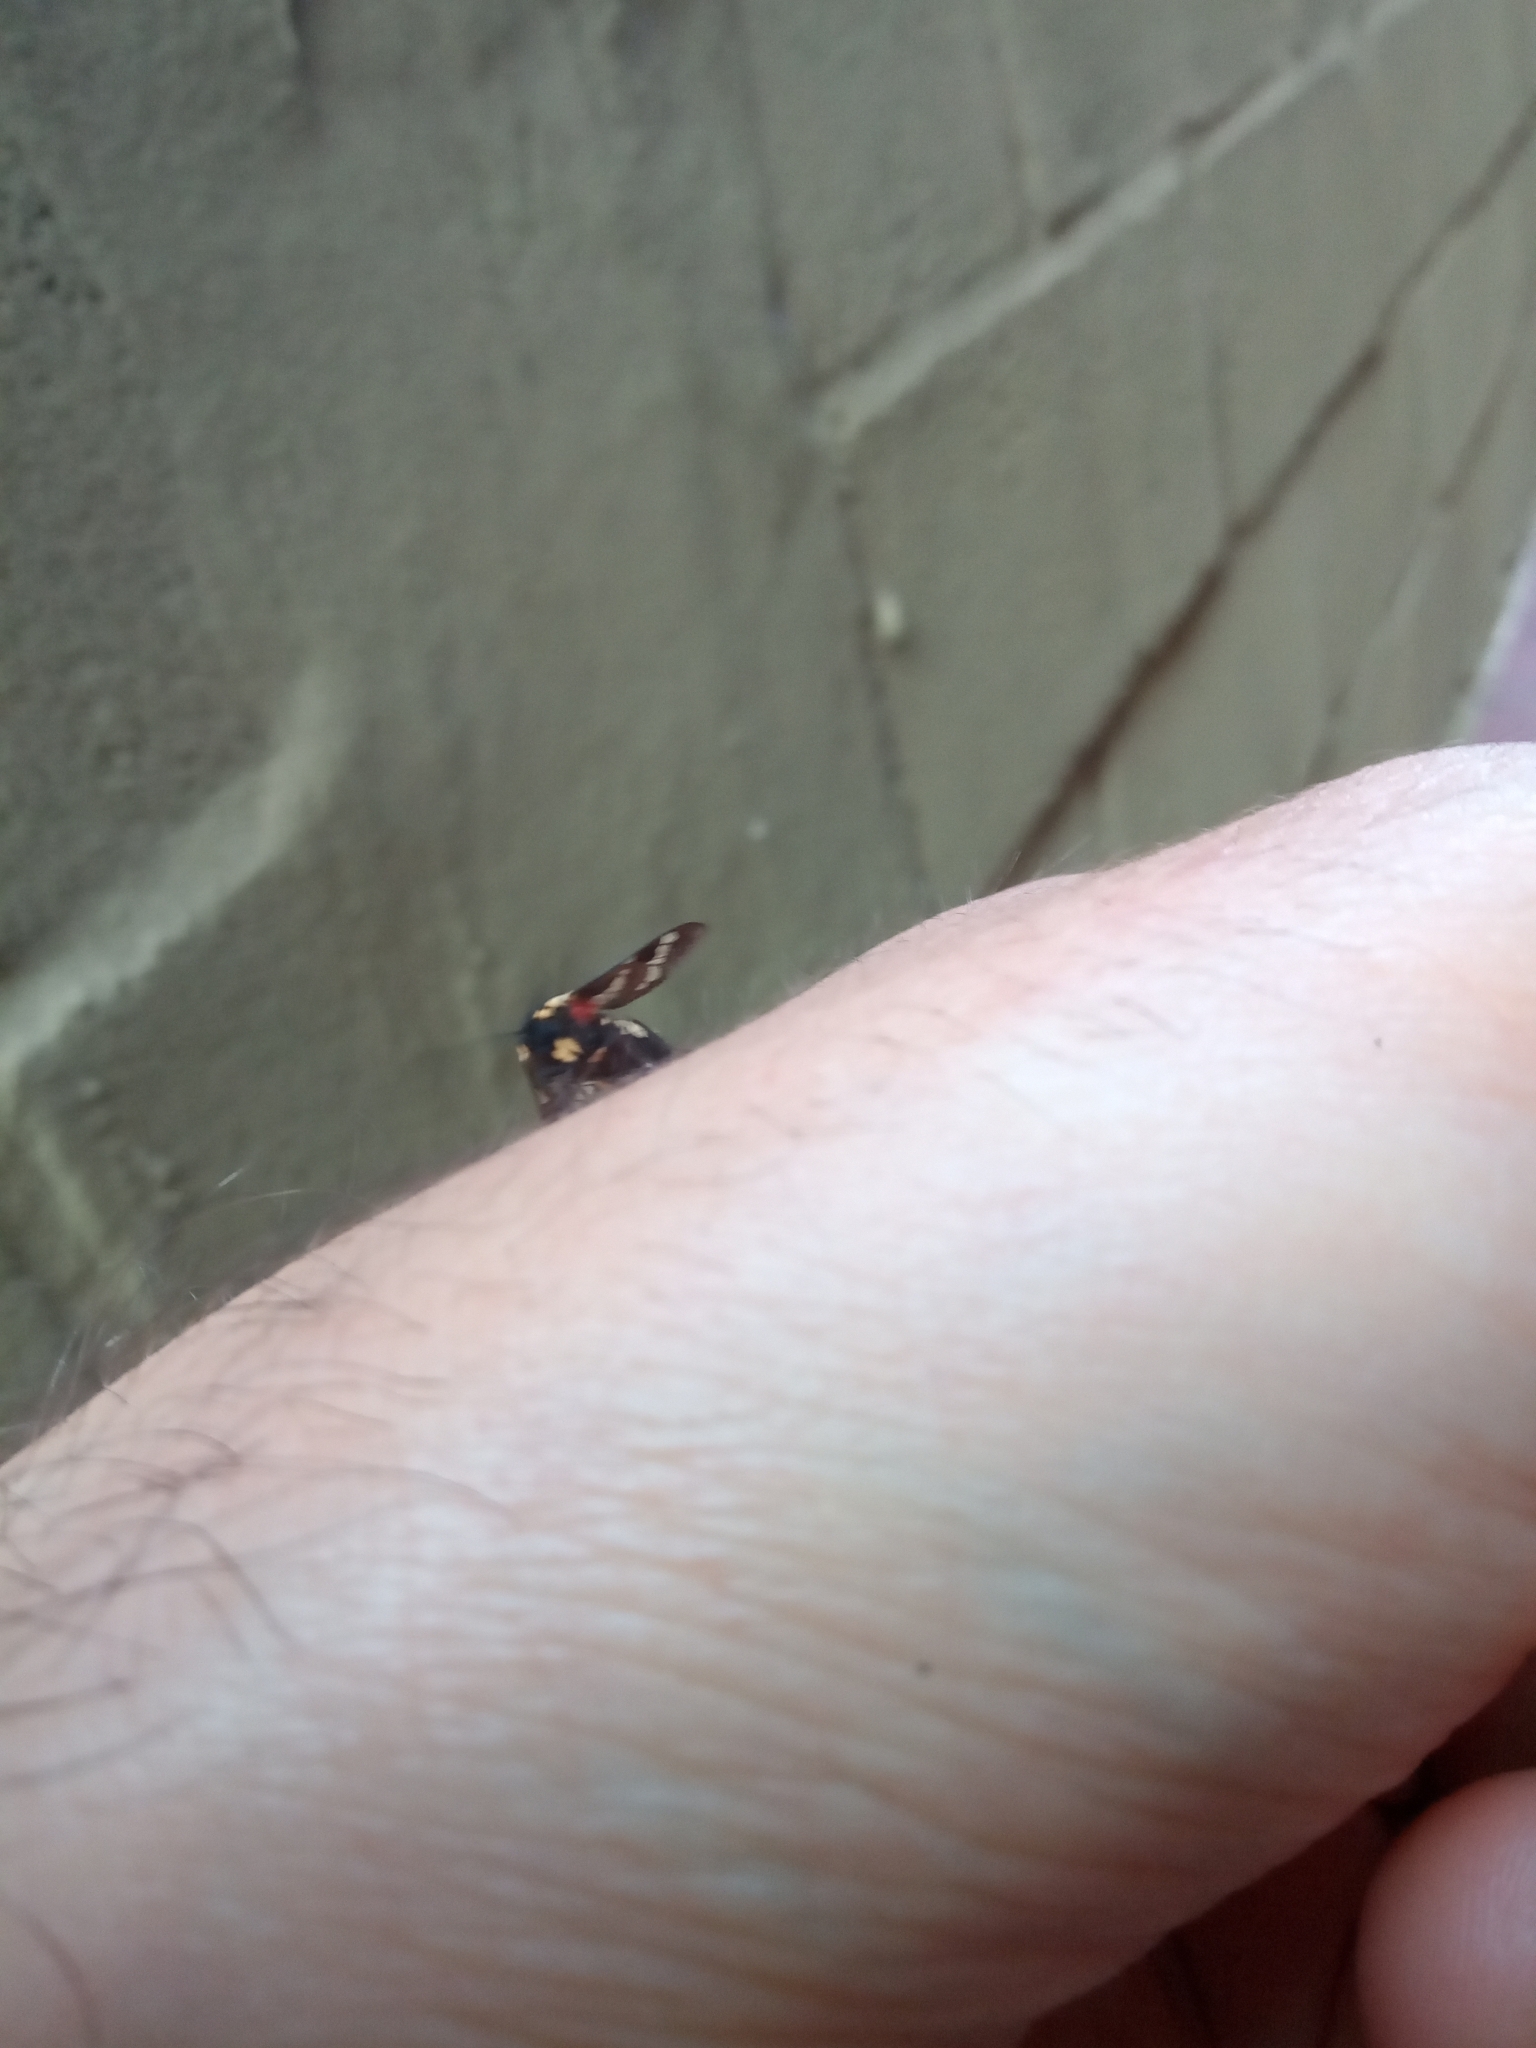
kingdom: Animalia
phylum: Arthropoda
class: Insecta
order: Lepidoptera
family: Erebidae
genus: Eurata
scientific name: Eurata hermione
